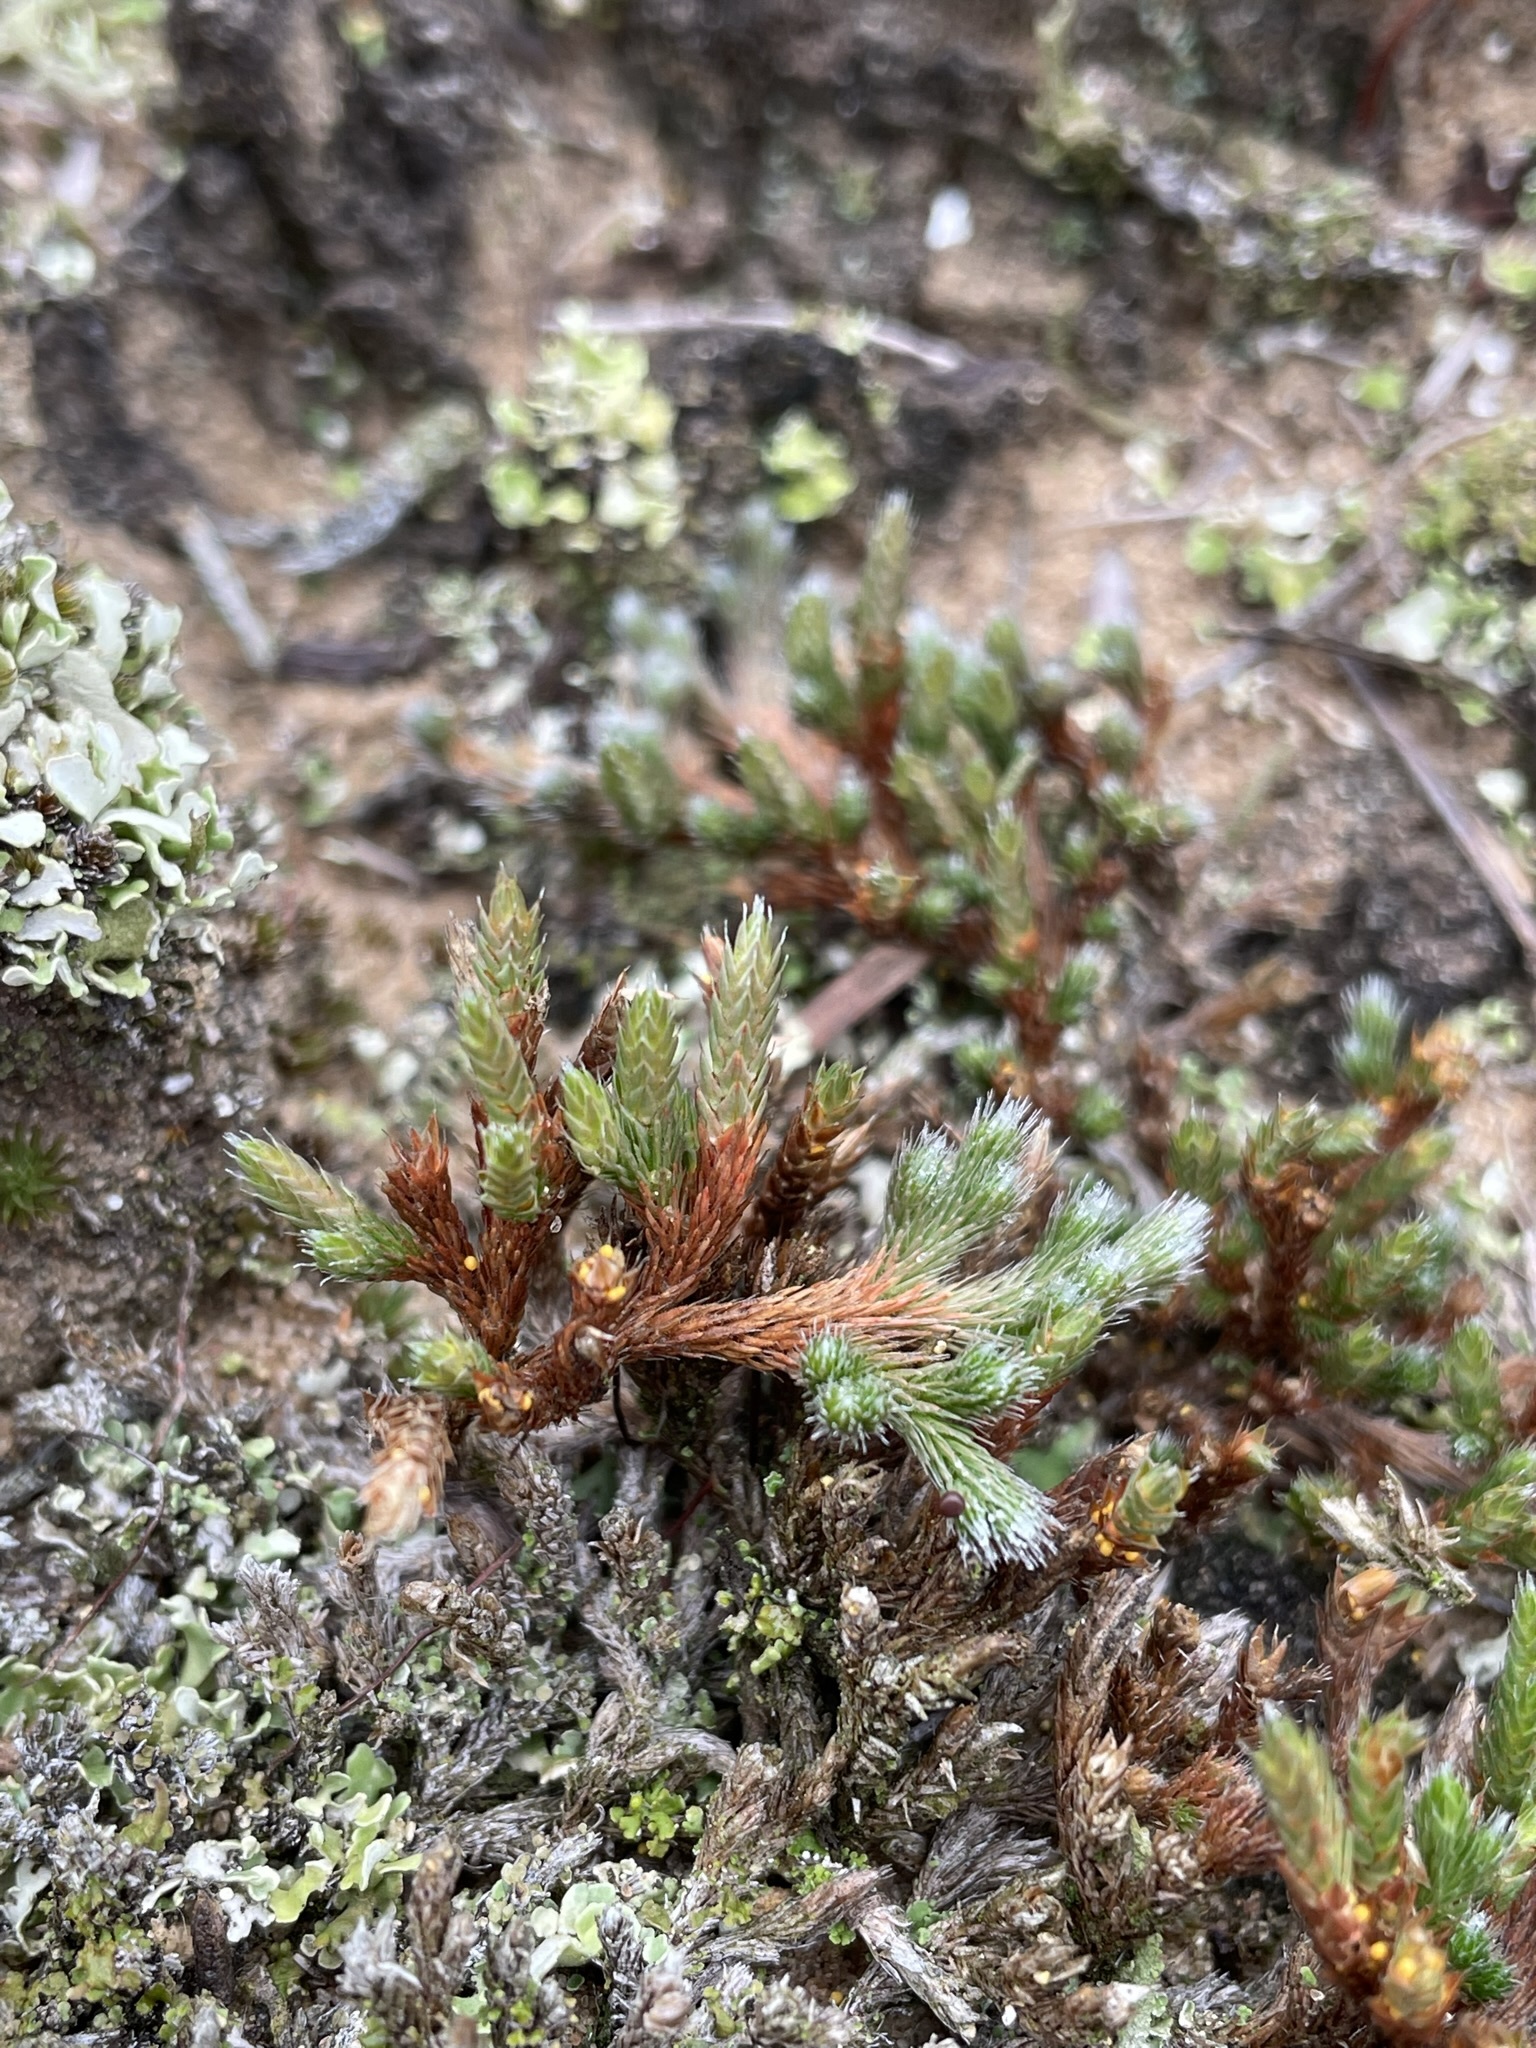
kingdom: Plantae
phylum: Tracheophyta
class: Lycopodiopsida
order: Selaginellales
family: Selaginellaceae
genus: Selaginella
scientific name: Selaginella rupestris
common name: Dwarf spikemoss
